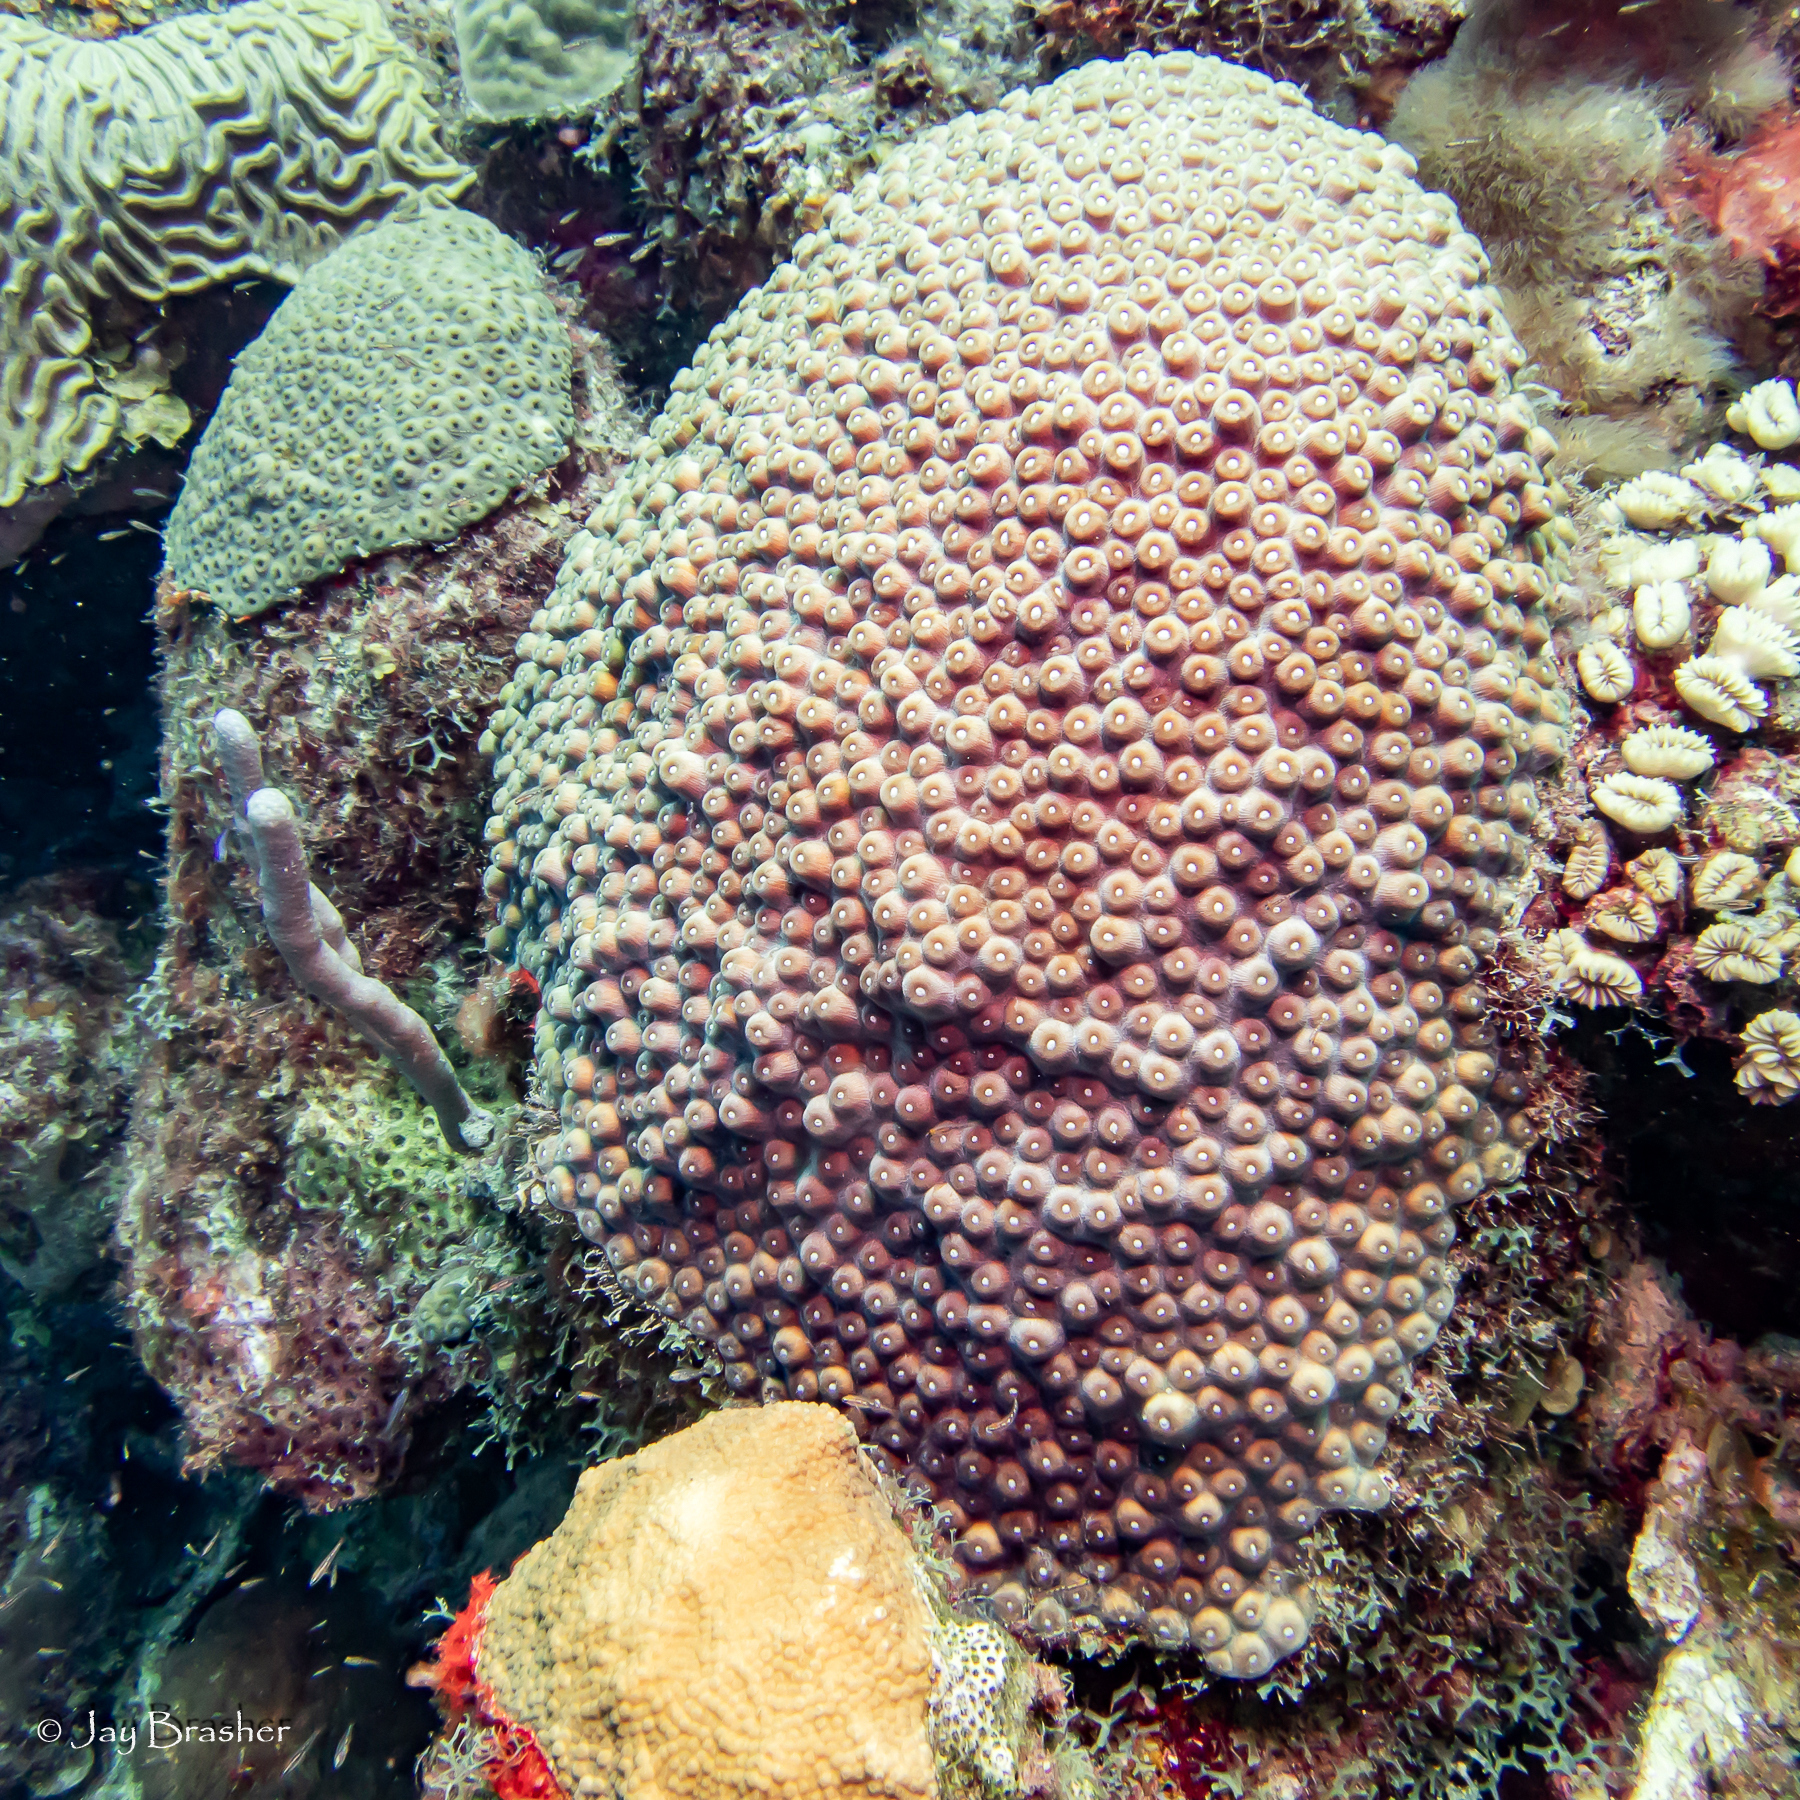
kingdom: Animalia
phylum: Cnidaria
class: Anthozoa
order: Scleractinia
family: Montastraeidae
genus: Montastraea
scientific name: Montastraea cavernosa
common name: Great star coral
